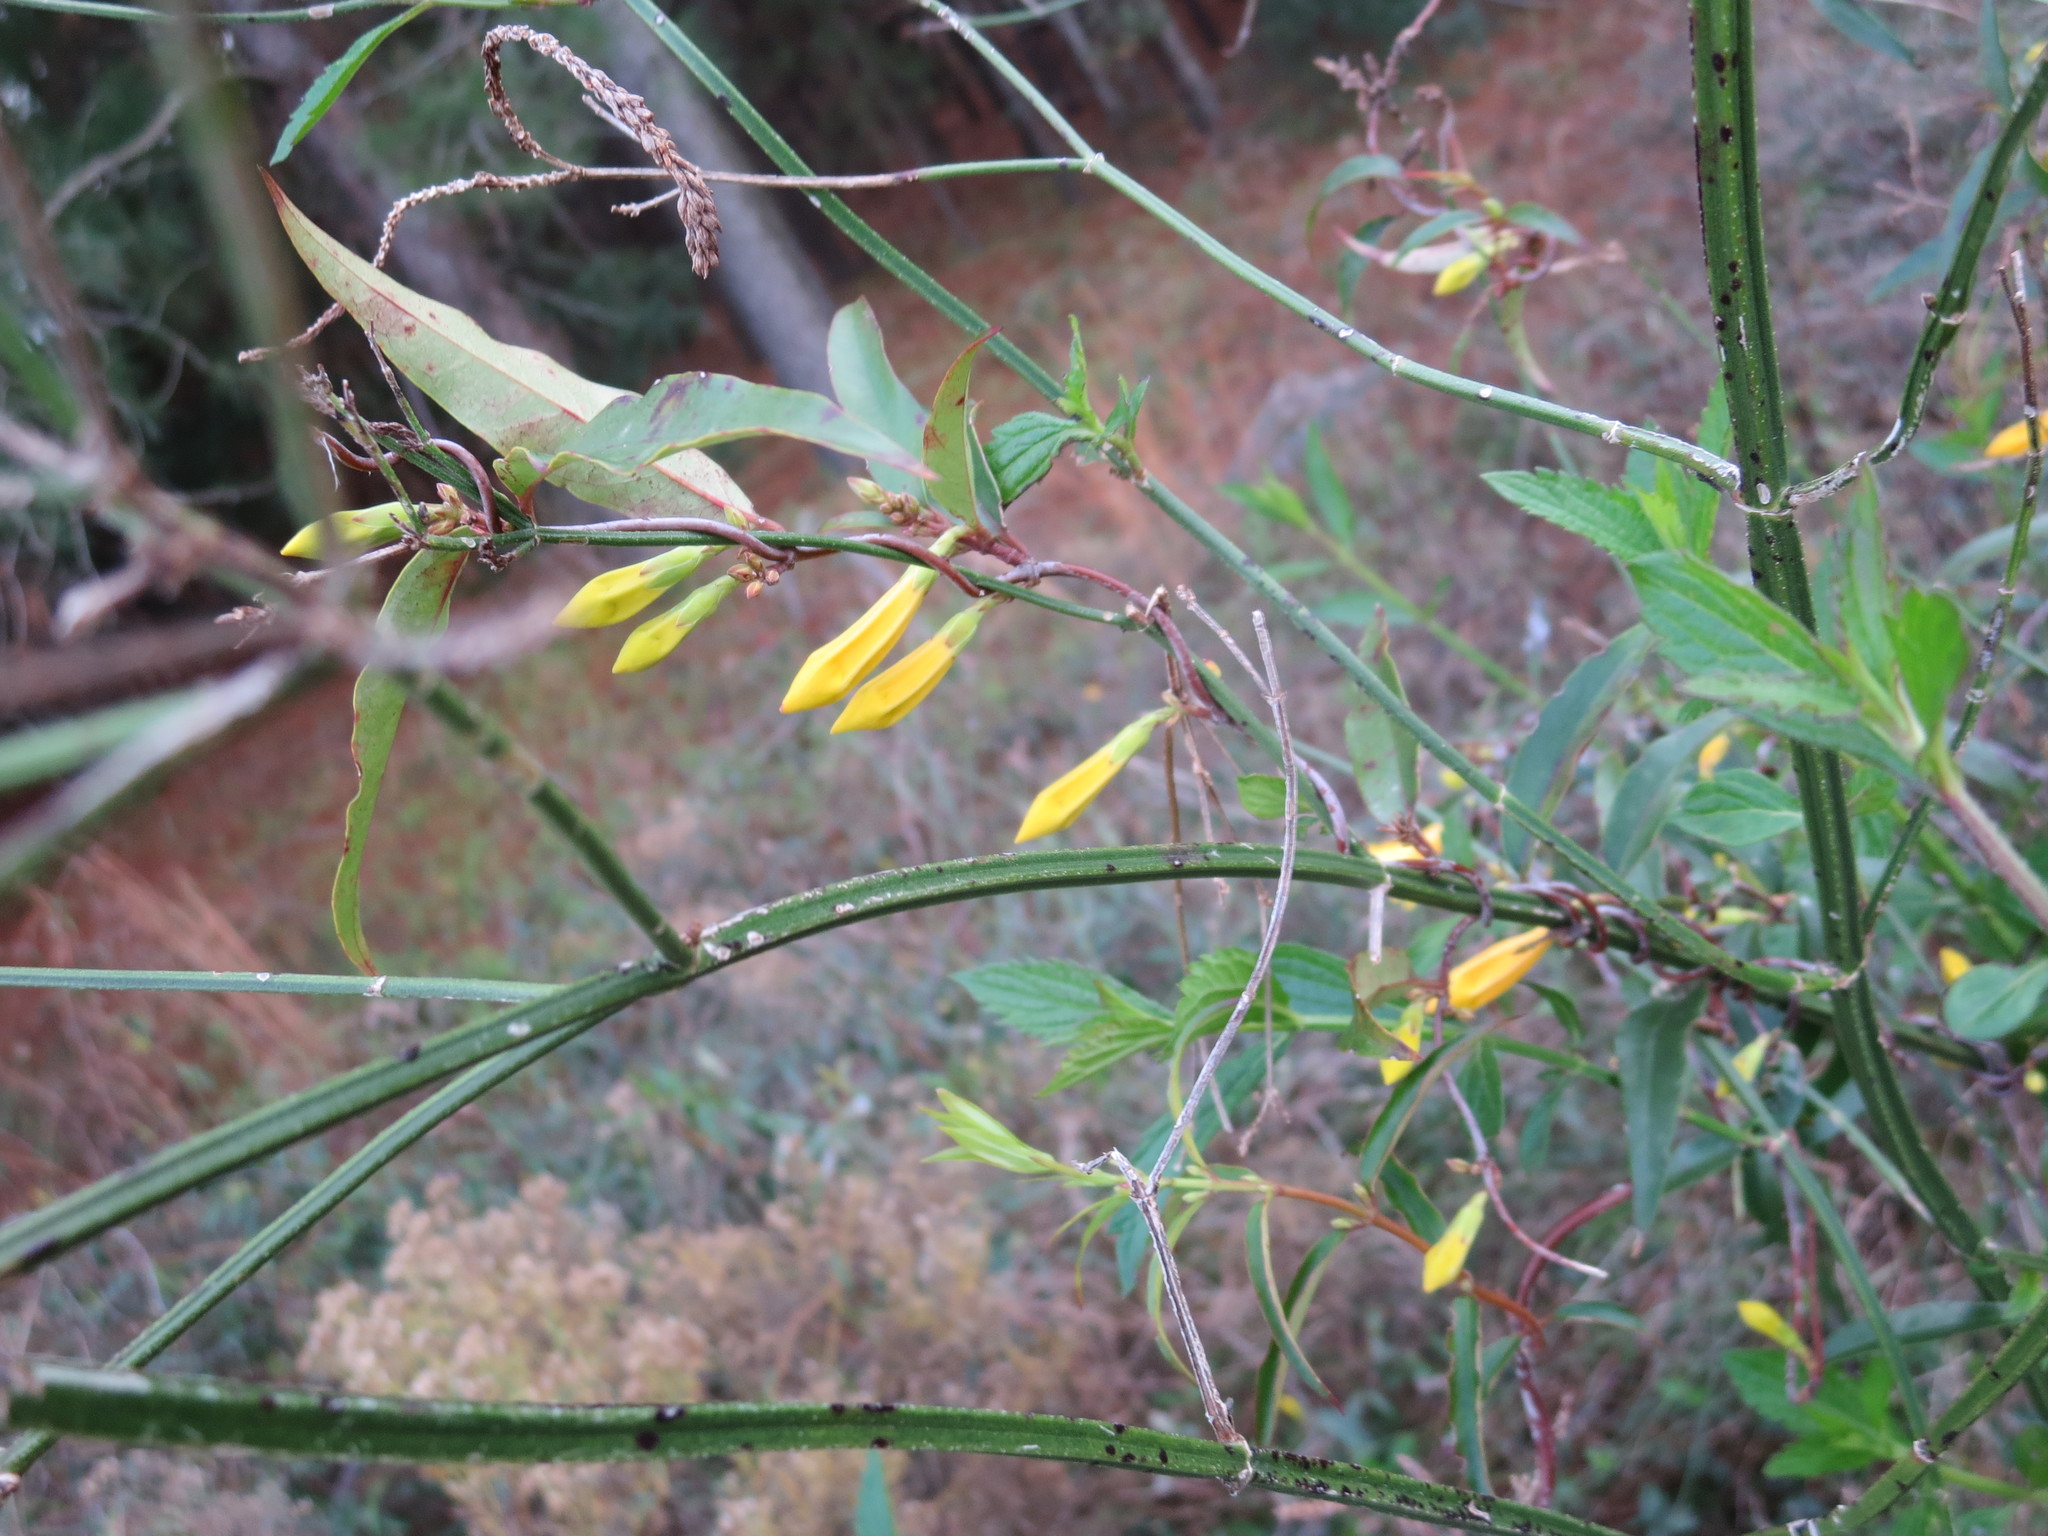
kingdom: Plantae
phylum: Tracheophyta
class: Magnoliopsida
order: Gentianales
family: Gelsemiaceae
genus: Gelsemium
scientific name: Gelsemium sempervirens
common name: Carolina-jasmine
